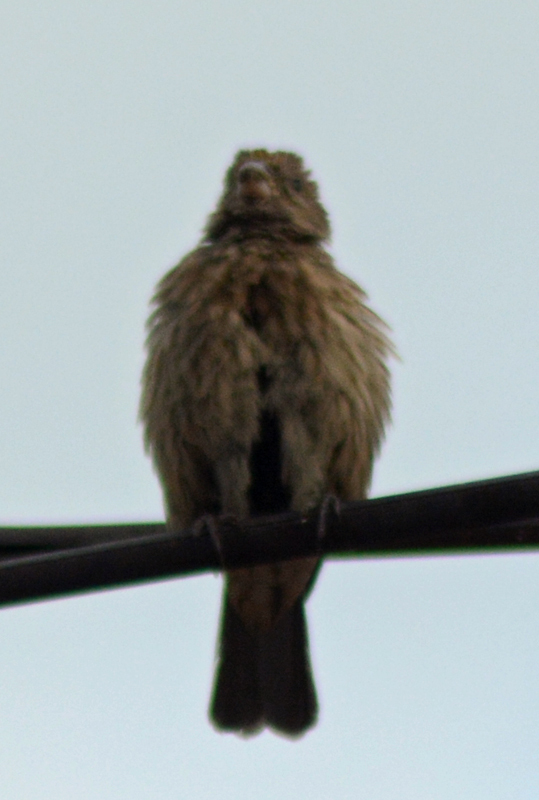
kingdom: Animalia
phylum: Chordata
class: Aves
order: Passeriformes
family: Fringillidae
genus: Haemorhous
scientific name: Haemorhous mexicanus
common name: House finch
